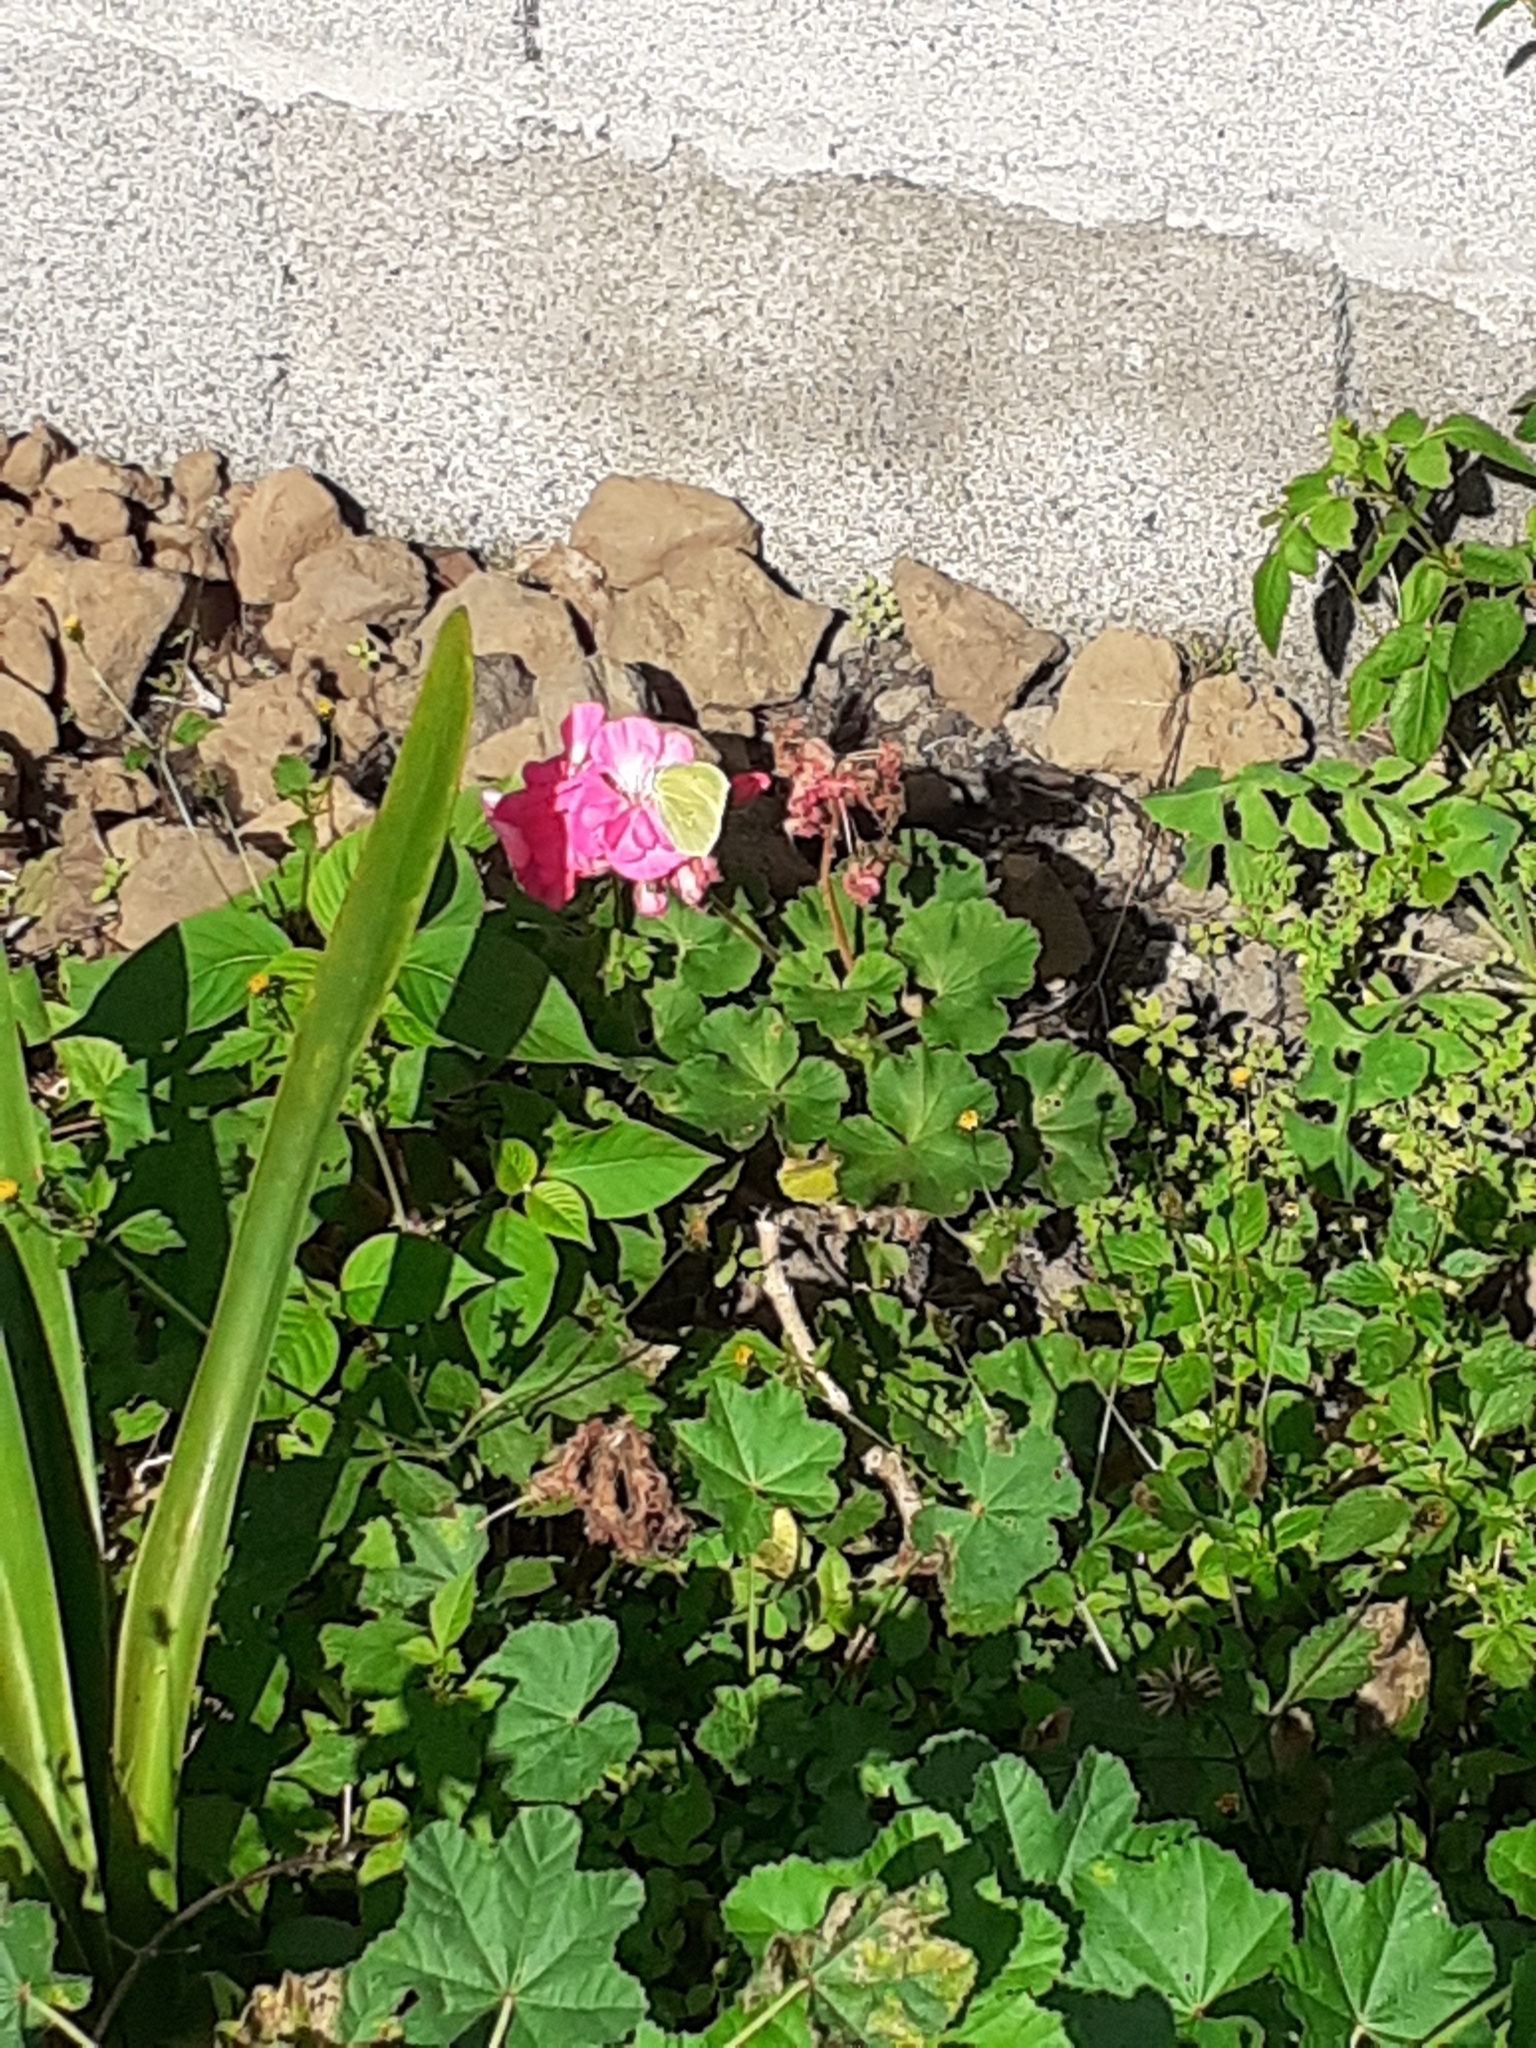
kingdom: Animalia
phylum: Arthropoda
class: Insecta
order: Lepidoptera
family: Pieridae
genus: Gonepteryx
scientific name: Gonepteryx cleobule
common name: Canary brimstone
